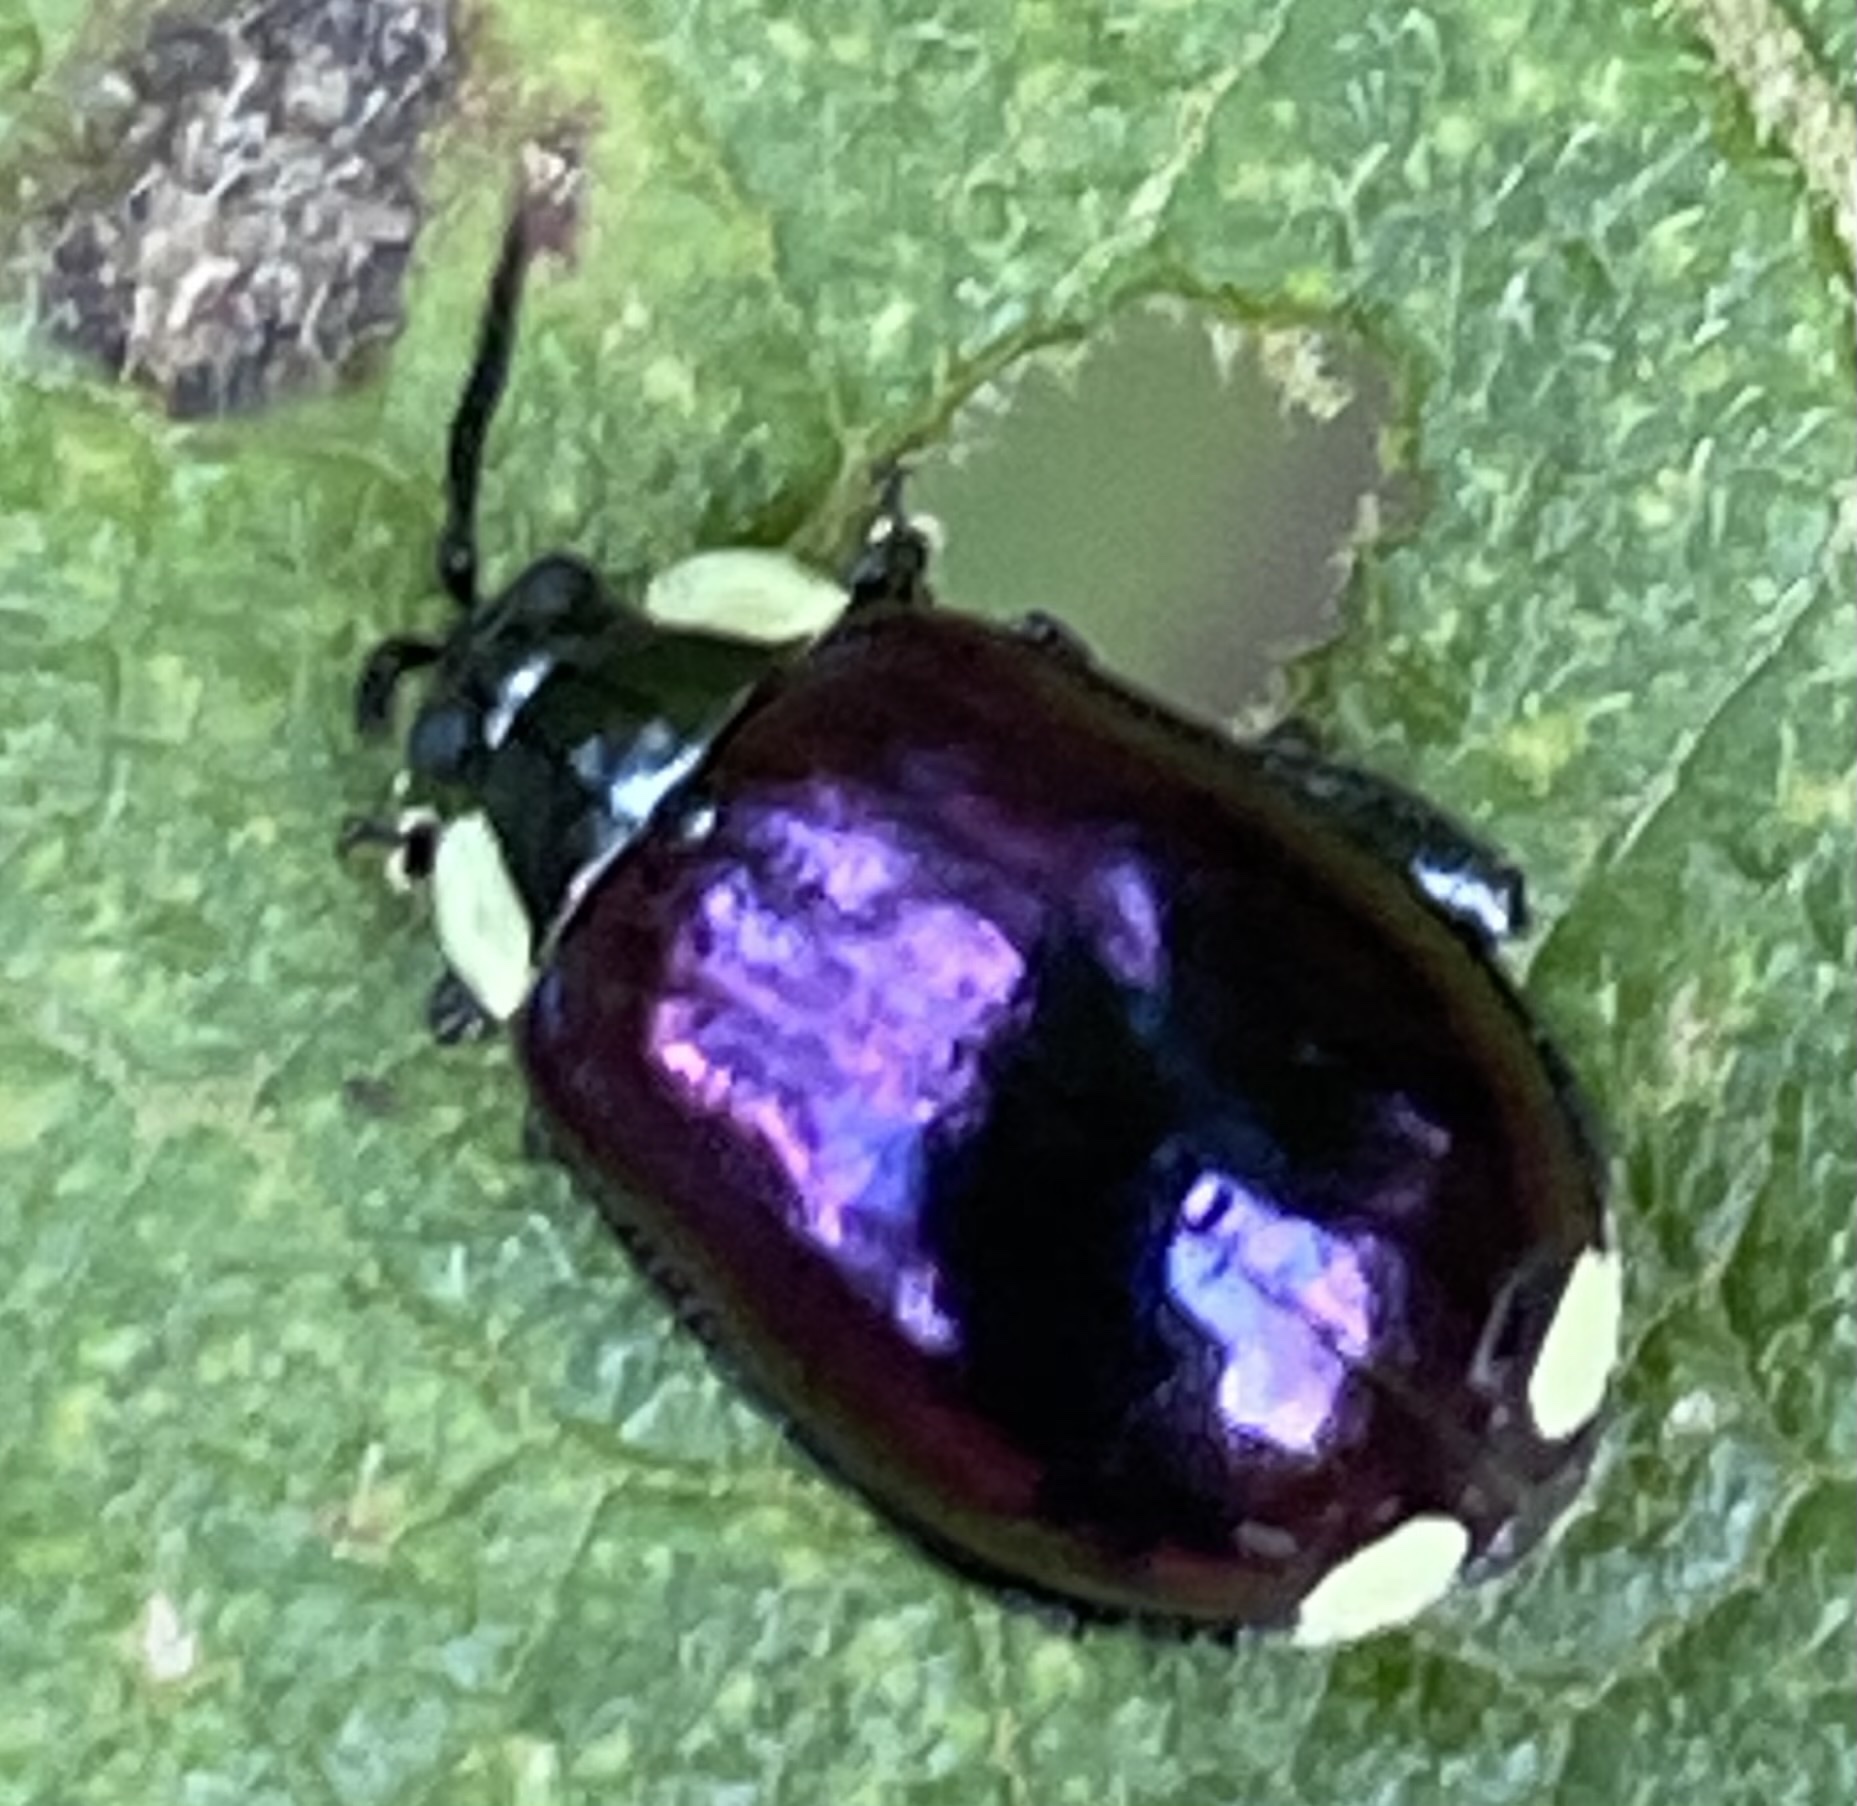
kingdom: Animalia
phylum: Arthropoda
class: Insecta
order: Coleoptera
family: Chrysomelidae
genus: Alagoasa
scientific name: Alagoasa
